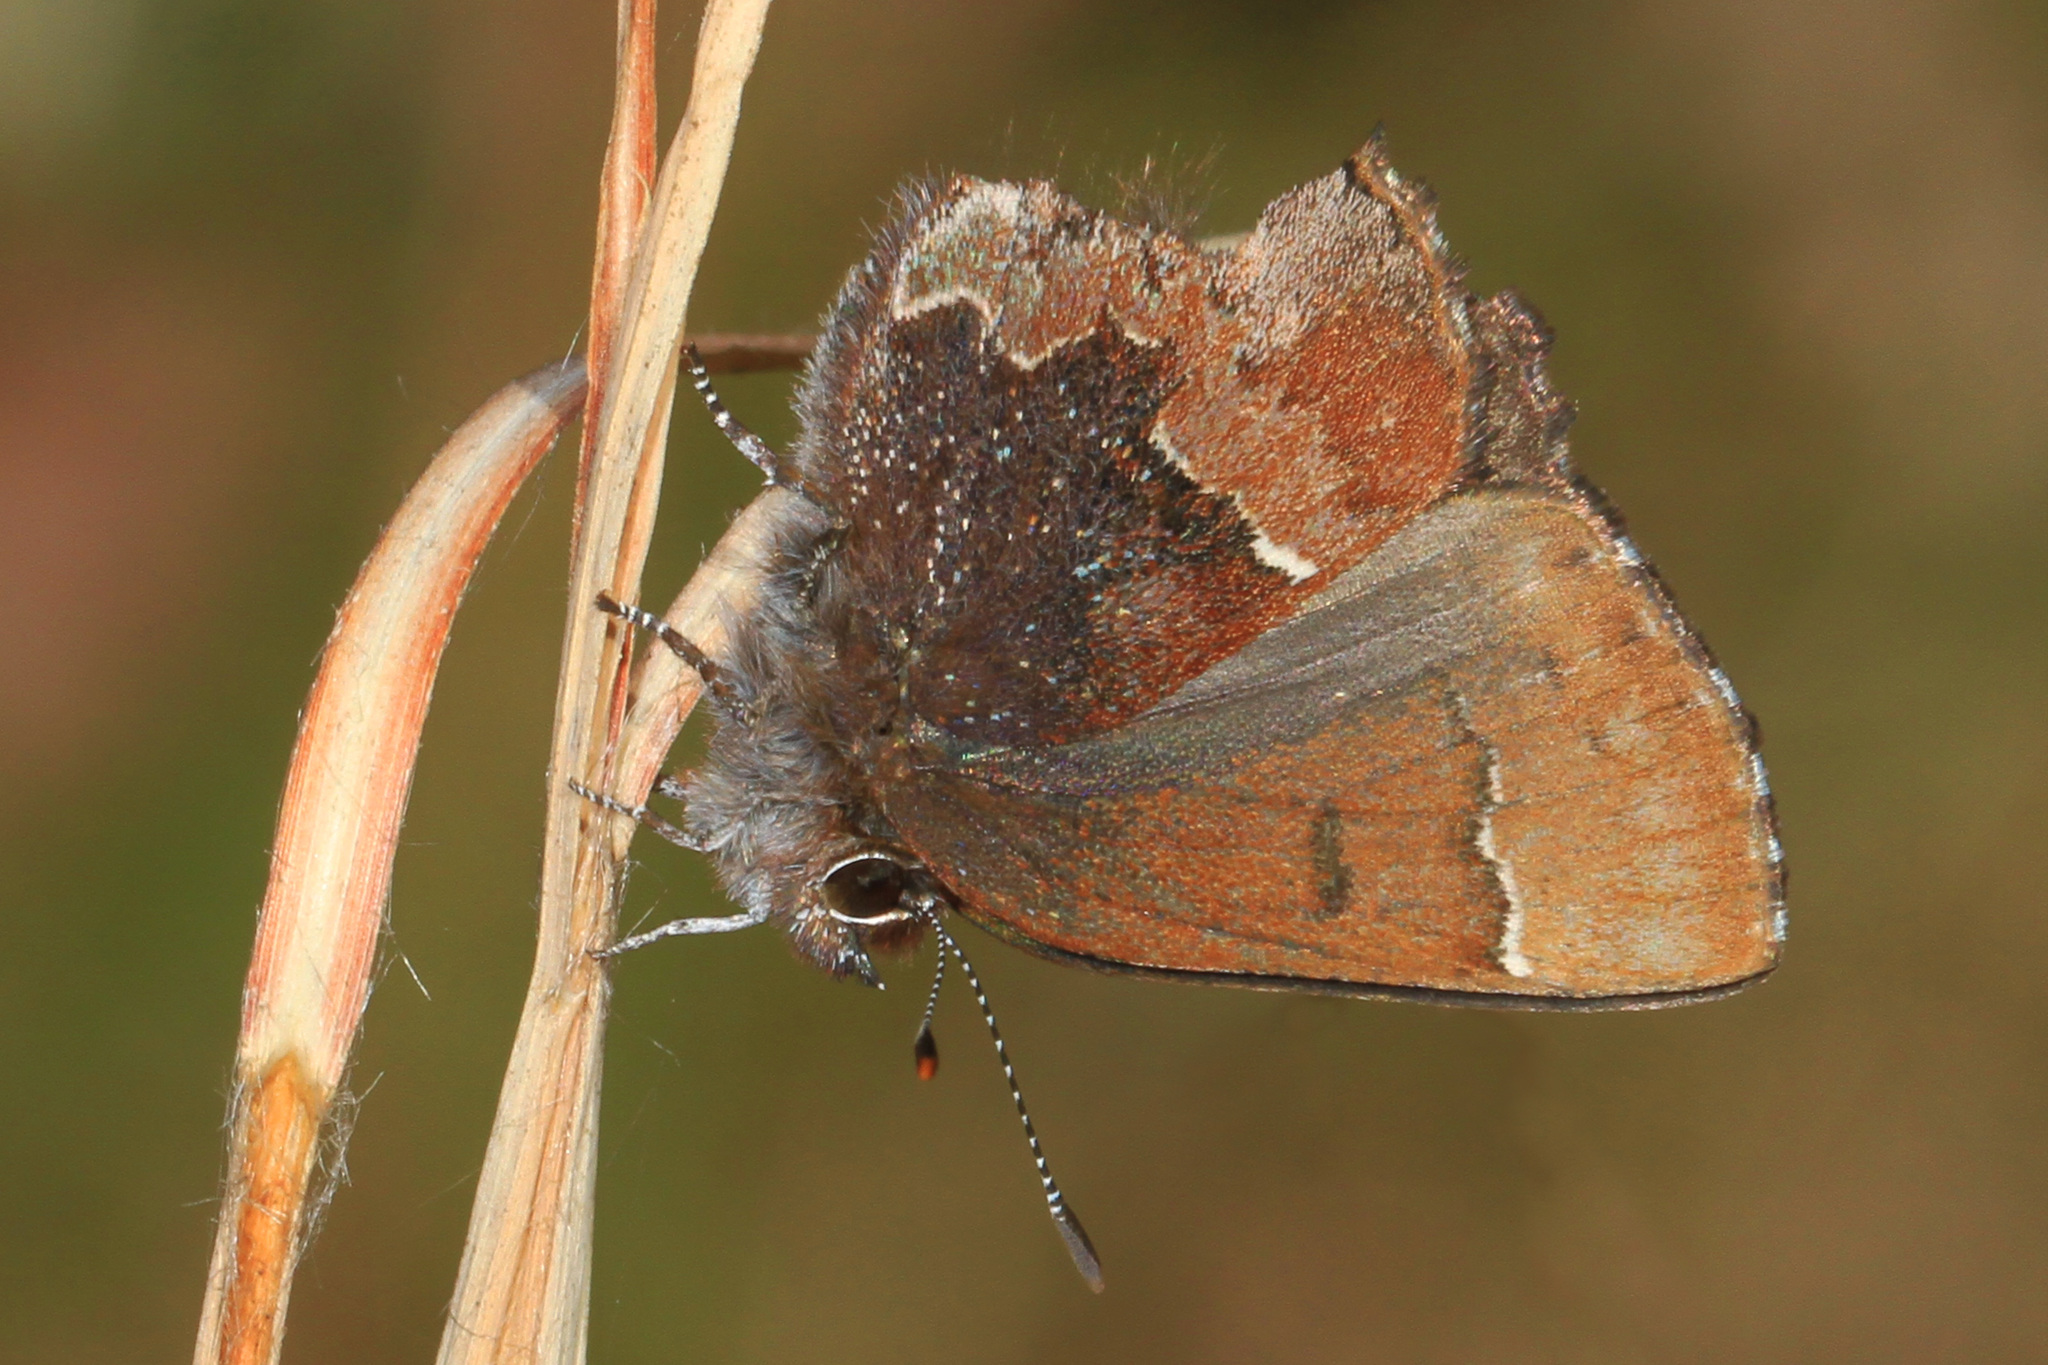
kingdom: Animalia
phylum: Arthropoda
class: Insecta
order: Lepidoptera
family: Lycaenidae
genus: Incisalia
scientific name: Incisalia henrici
